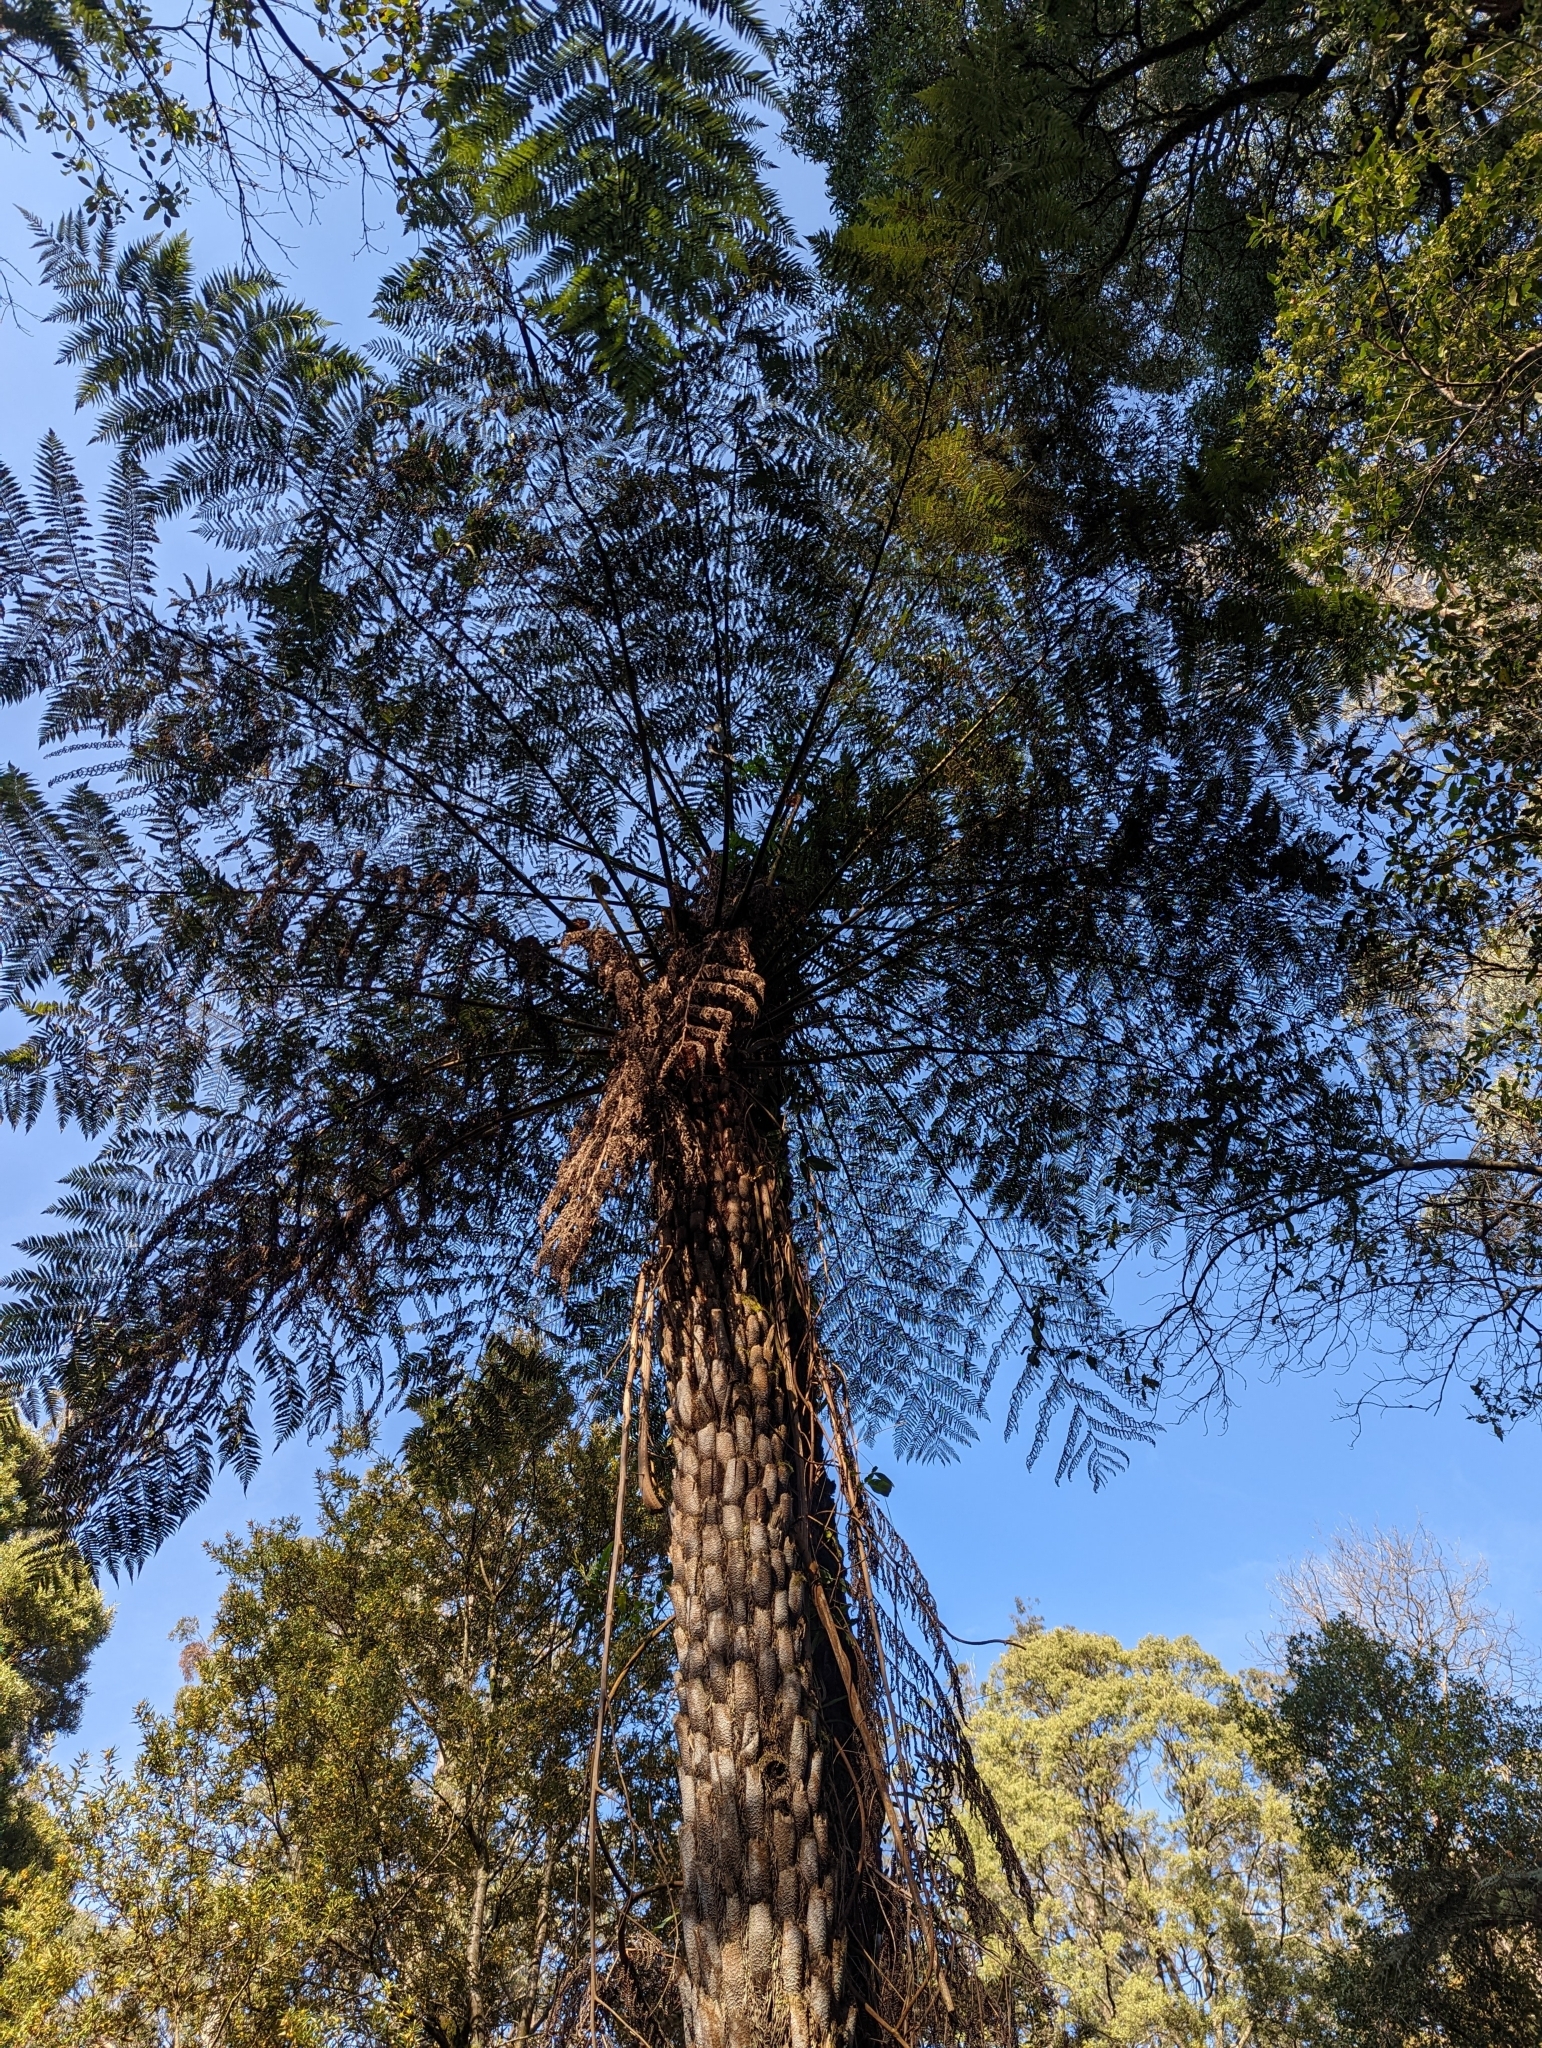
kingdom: Plantae
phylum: Tracheophyta
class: Polypodiopsida
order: Cyatheales
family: Cyatheaceae
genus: Alsophila
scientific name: Alsophila australis
